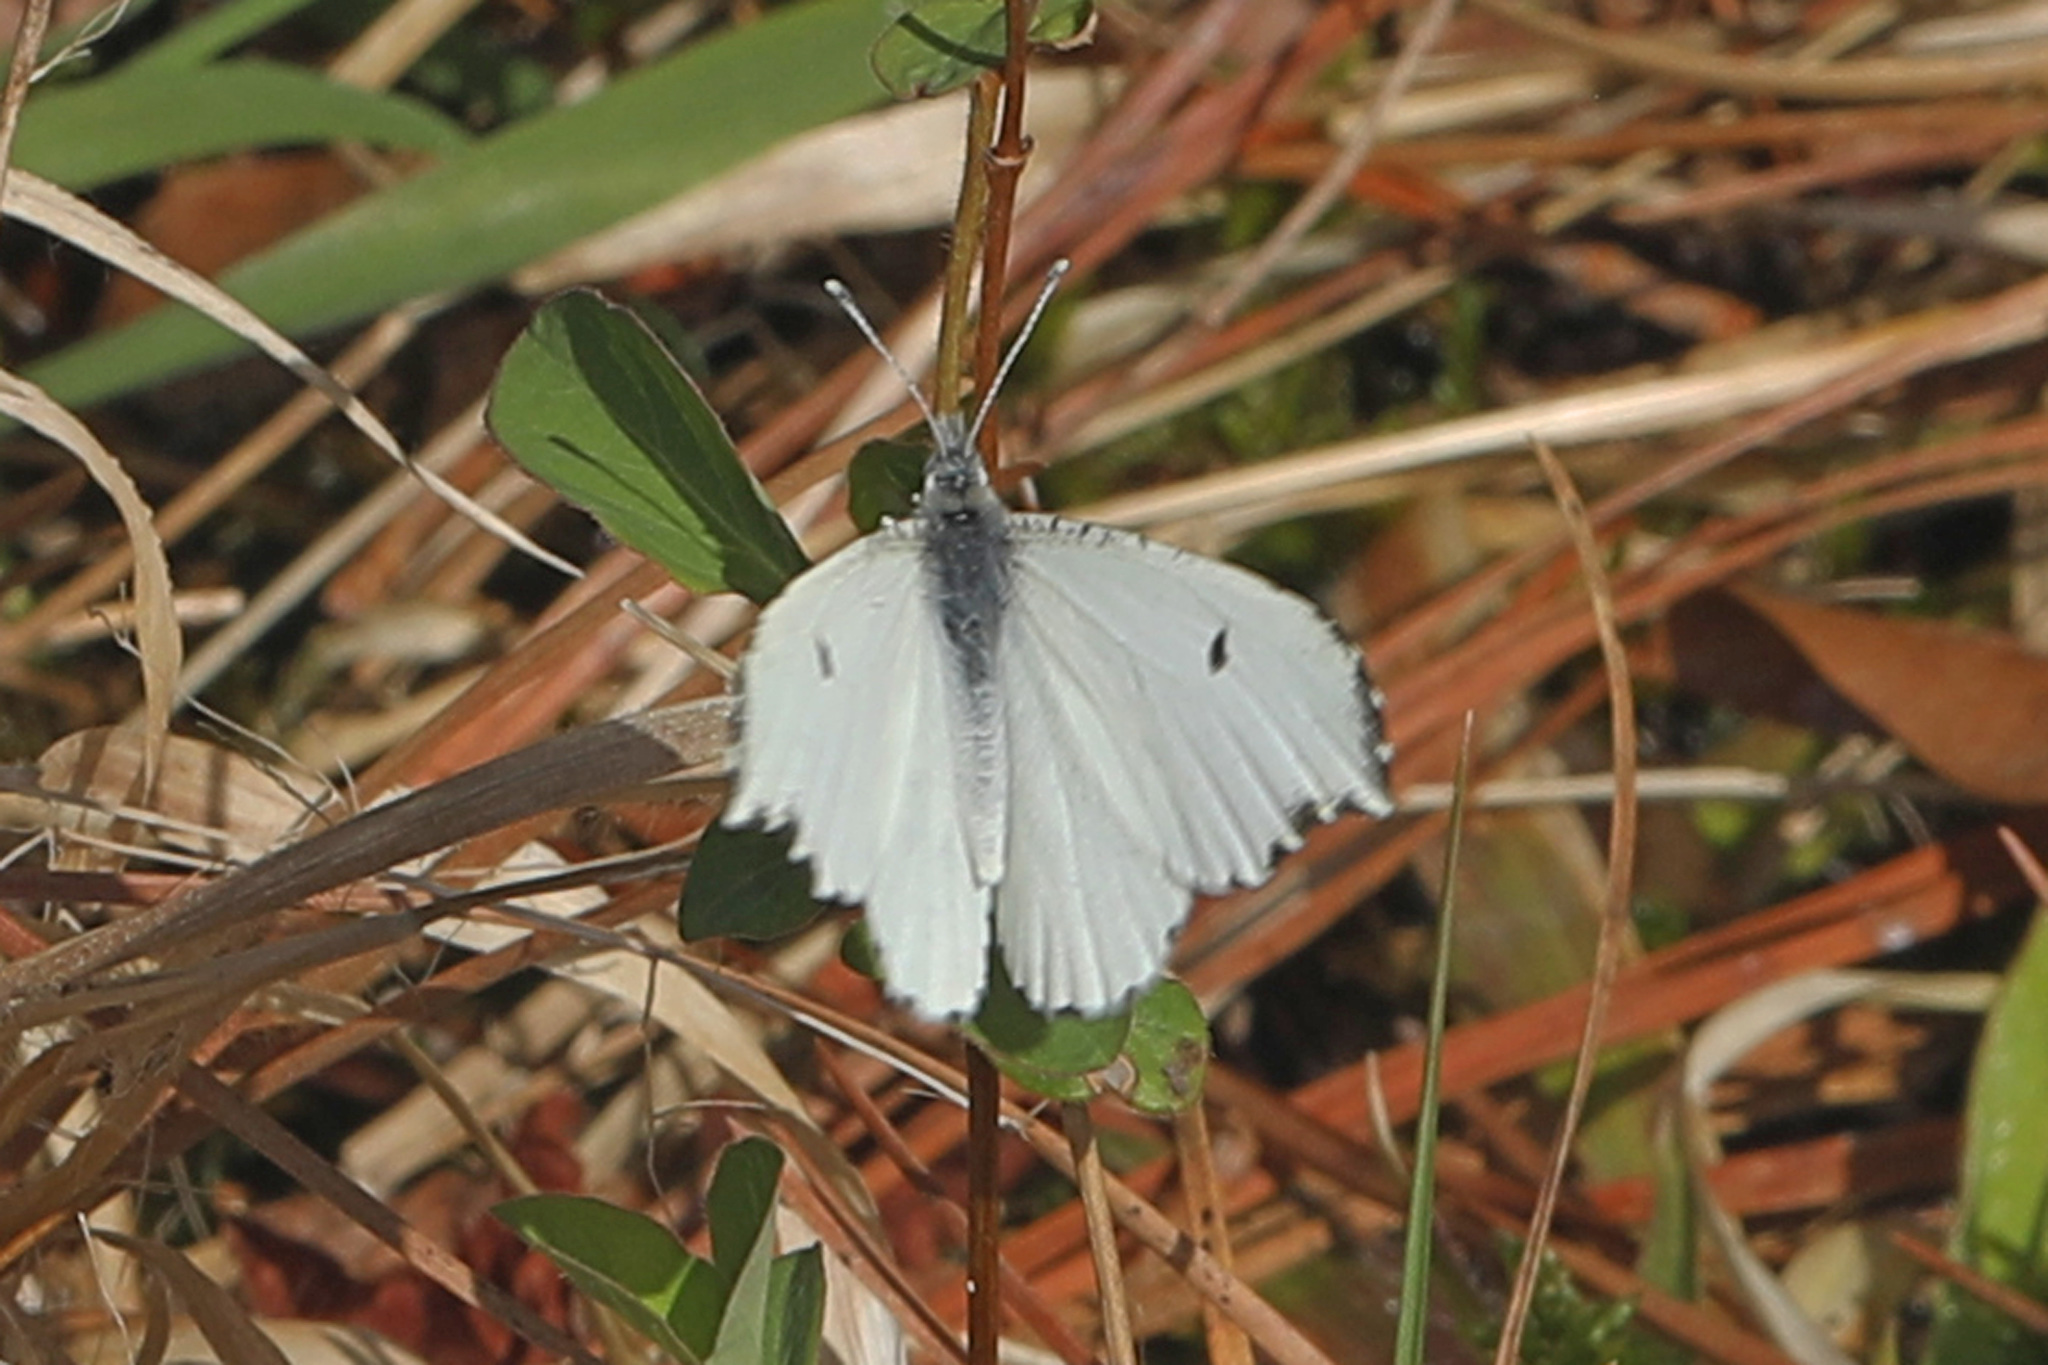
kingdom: Animalia
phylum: Arthropoda
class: Insecta
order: Lepidoptera
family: Pieridae
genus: Anthocharis
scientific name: Anthocharis midea
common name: Falcate orangetip
